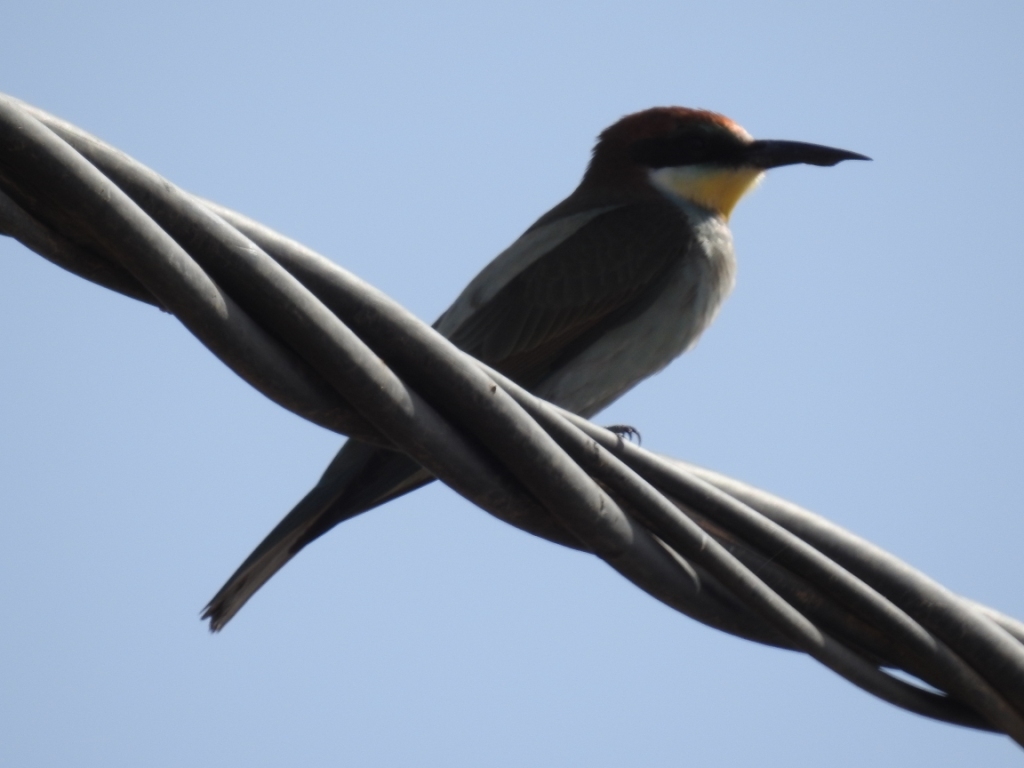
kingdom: Animalia
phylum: Chordata
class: Aves
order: Coraciiformes
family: Meropidae
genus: Merops
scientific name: Merops apiaster
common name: European bee-eater
